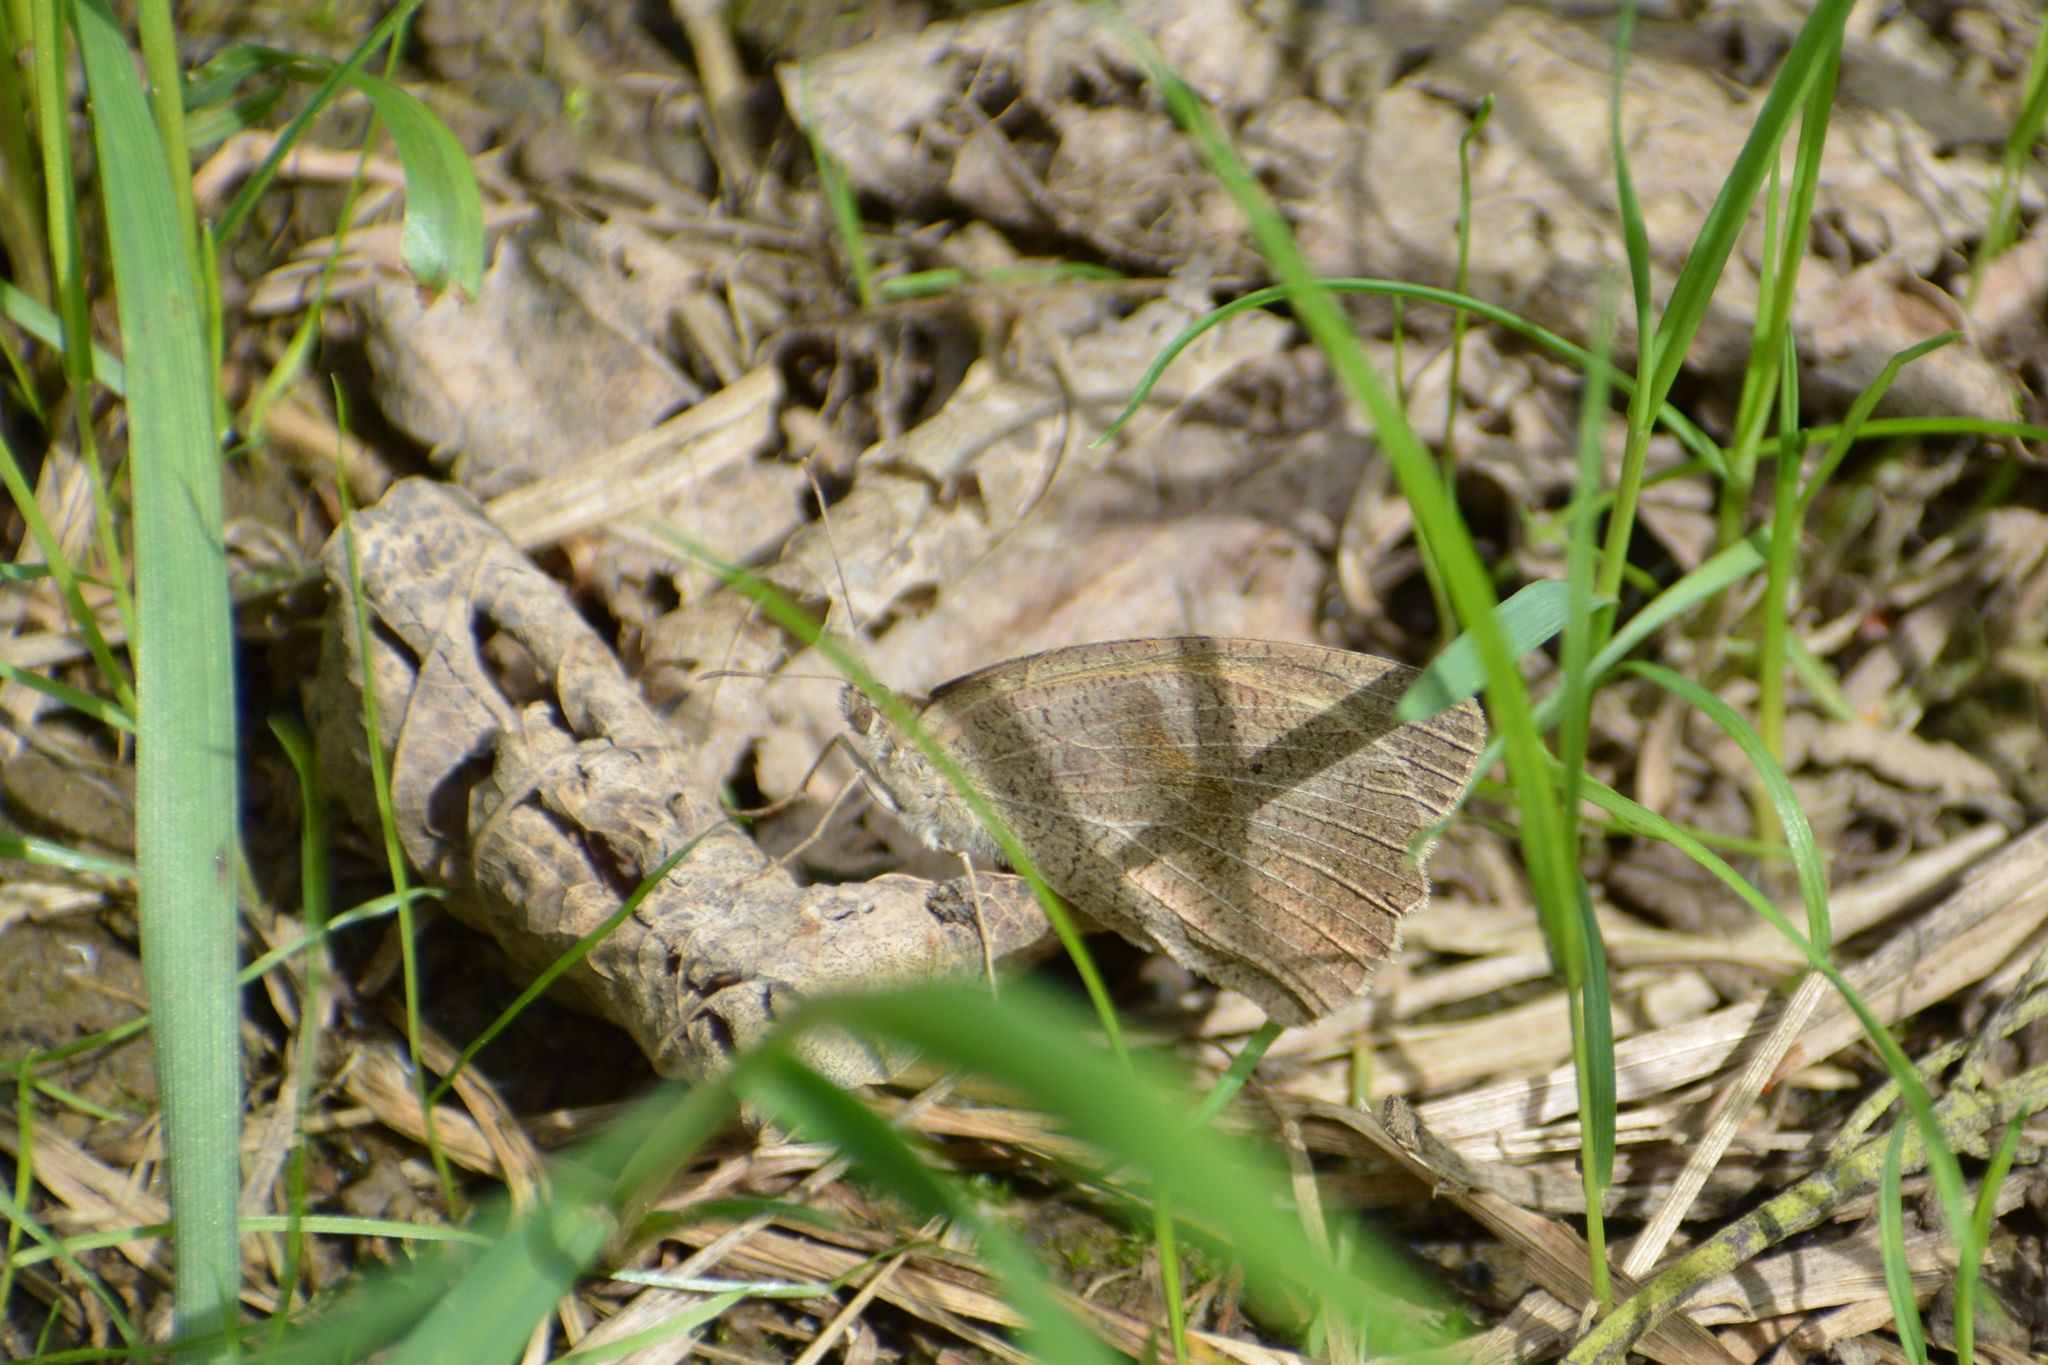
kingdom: Animalia
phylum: Arthropoda
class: Insecta
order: Lepidoptera
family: Nymphalidae
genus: Maniola
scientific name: Maniola jurtina
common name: Meadow brown
